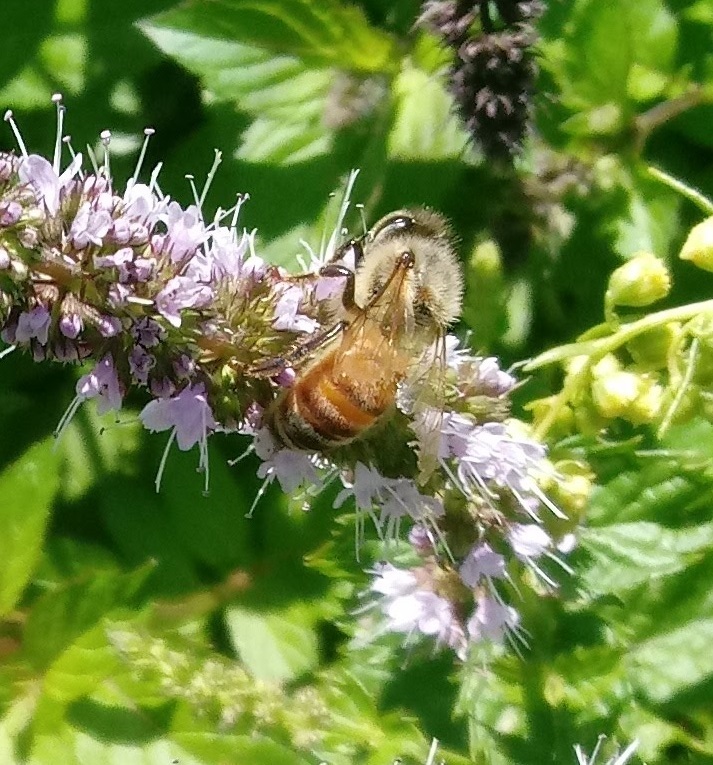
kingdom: Animalia
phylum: Arthropoda
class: Insecta
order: Hymenoptera
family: Apidae
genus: Apis
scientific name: Apis mellifera
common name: Honey bee
